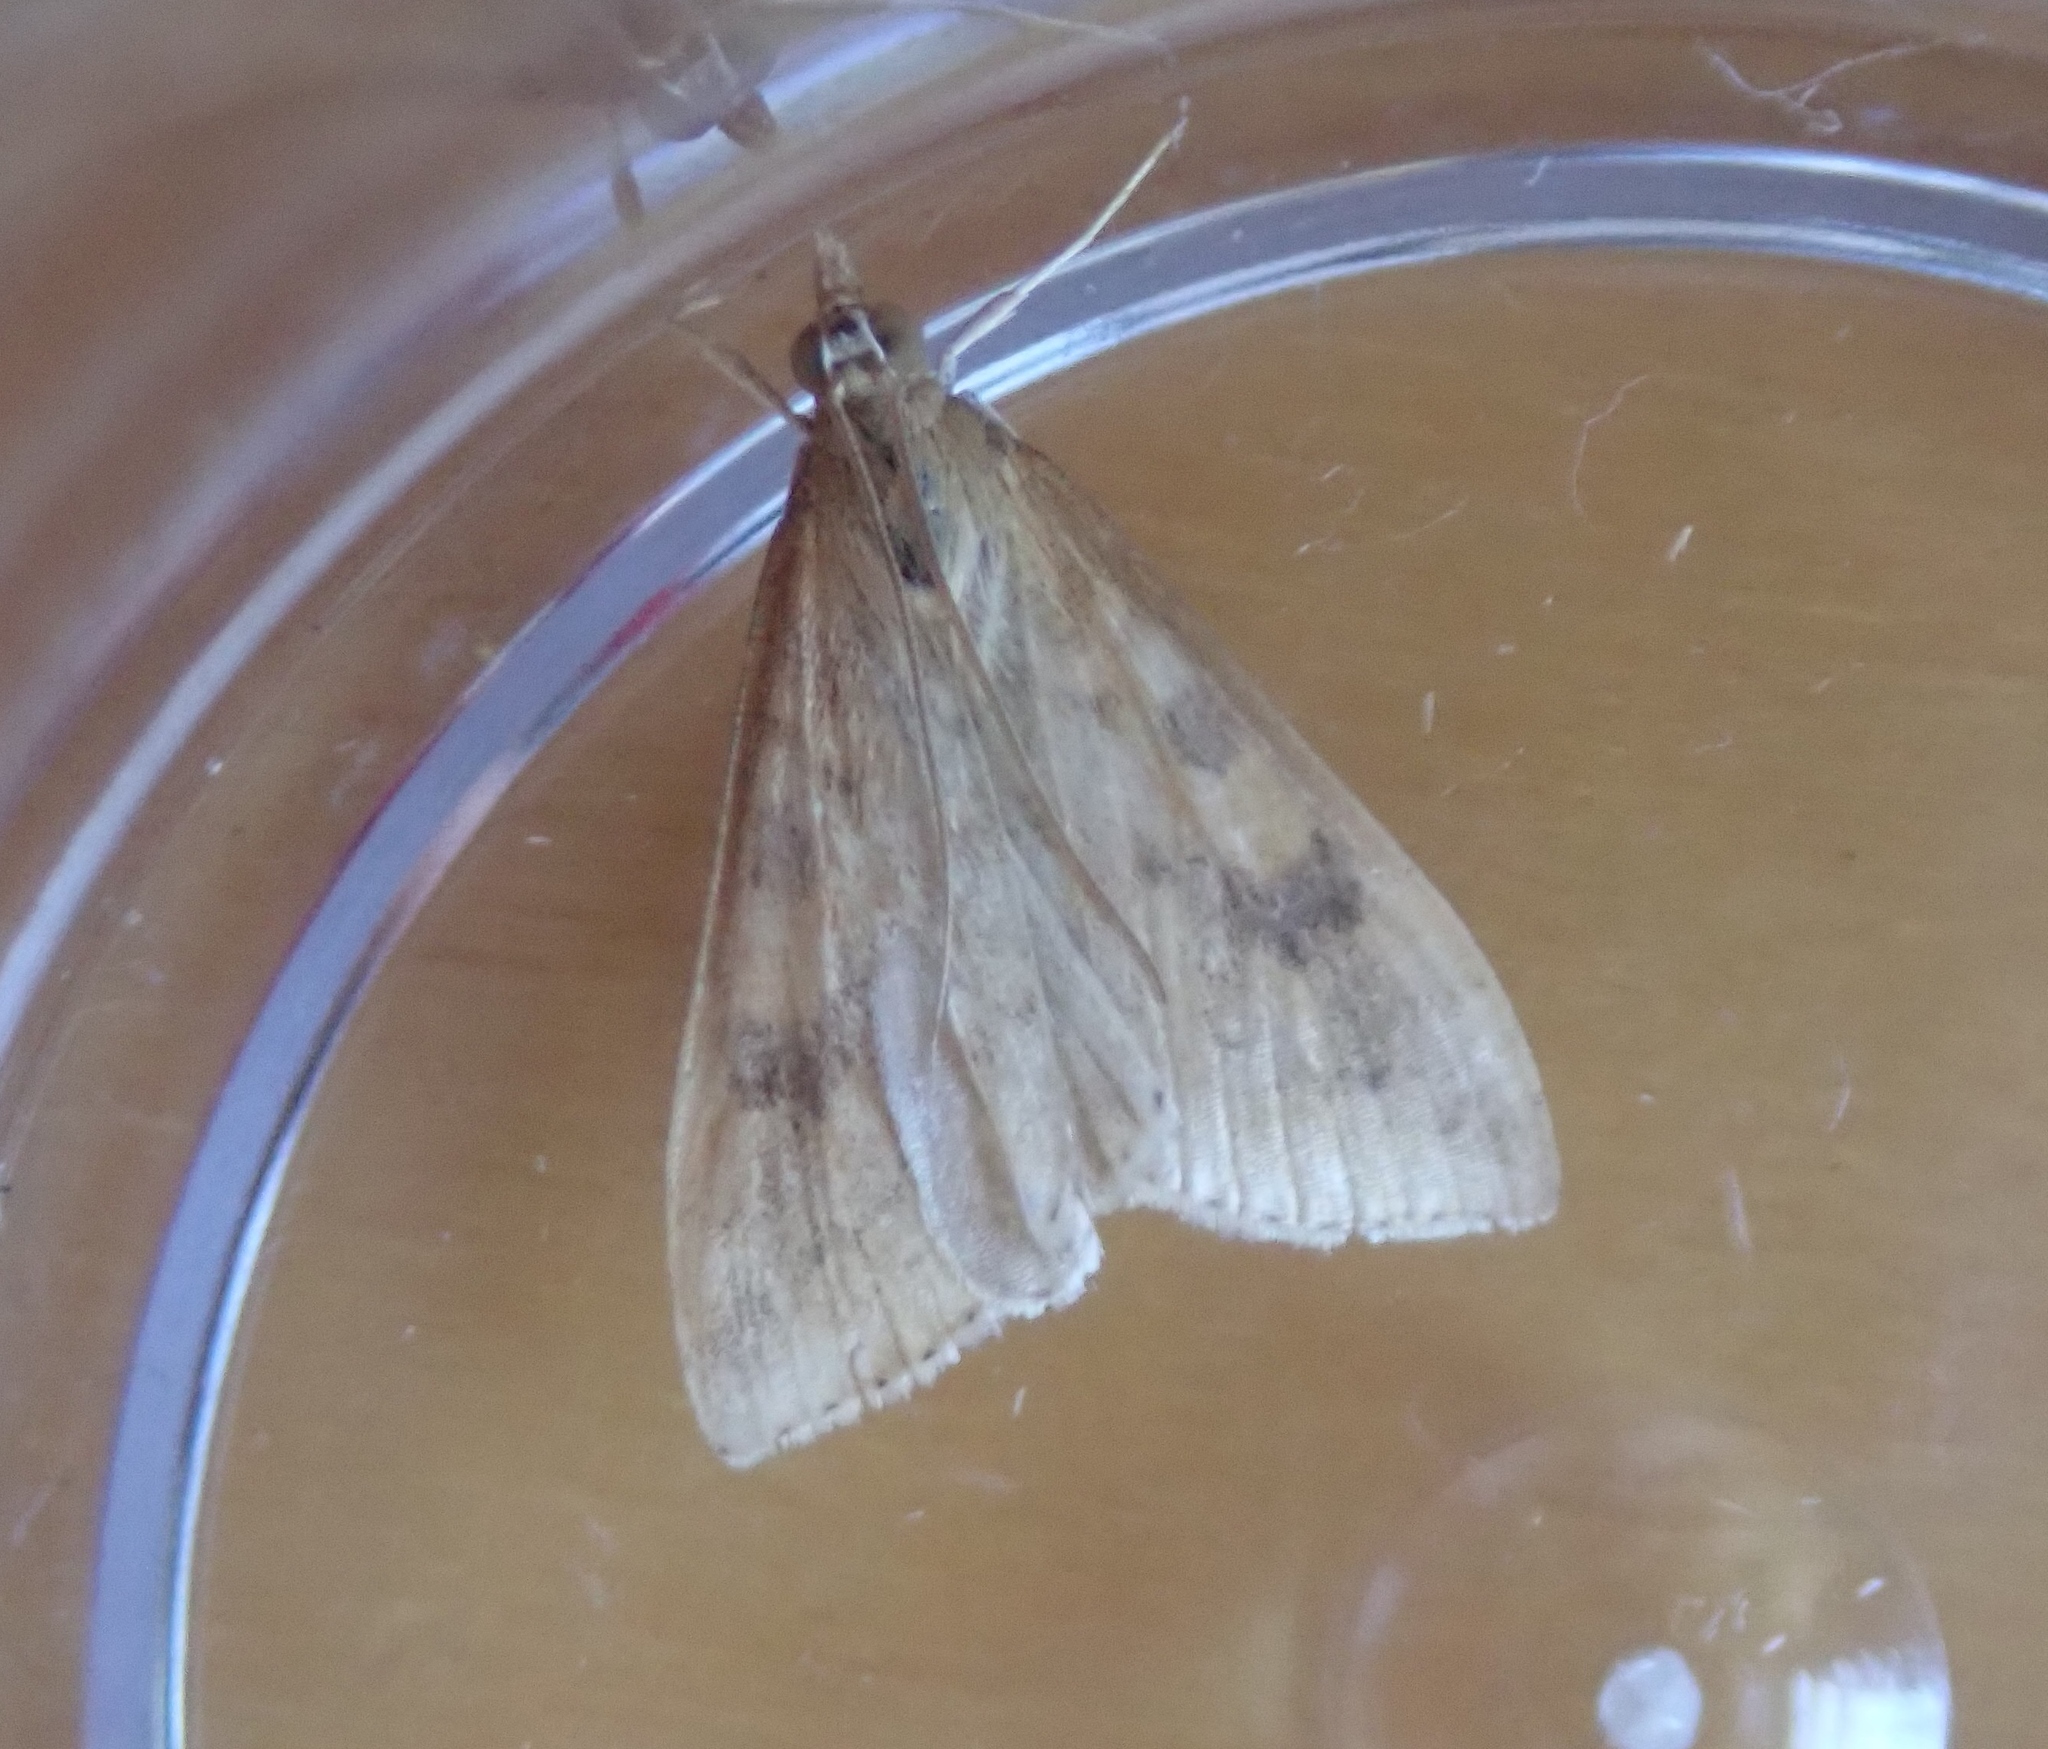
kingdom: Animalia
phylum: Arthropoda
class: Insecta
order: Lepidoptera
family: Crambidae
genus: Udea
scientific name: Udea ferrugalis
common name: Rusty dot
